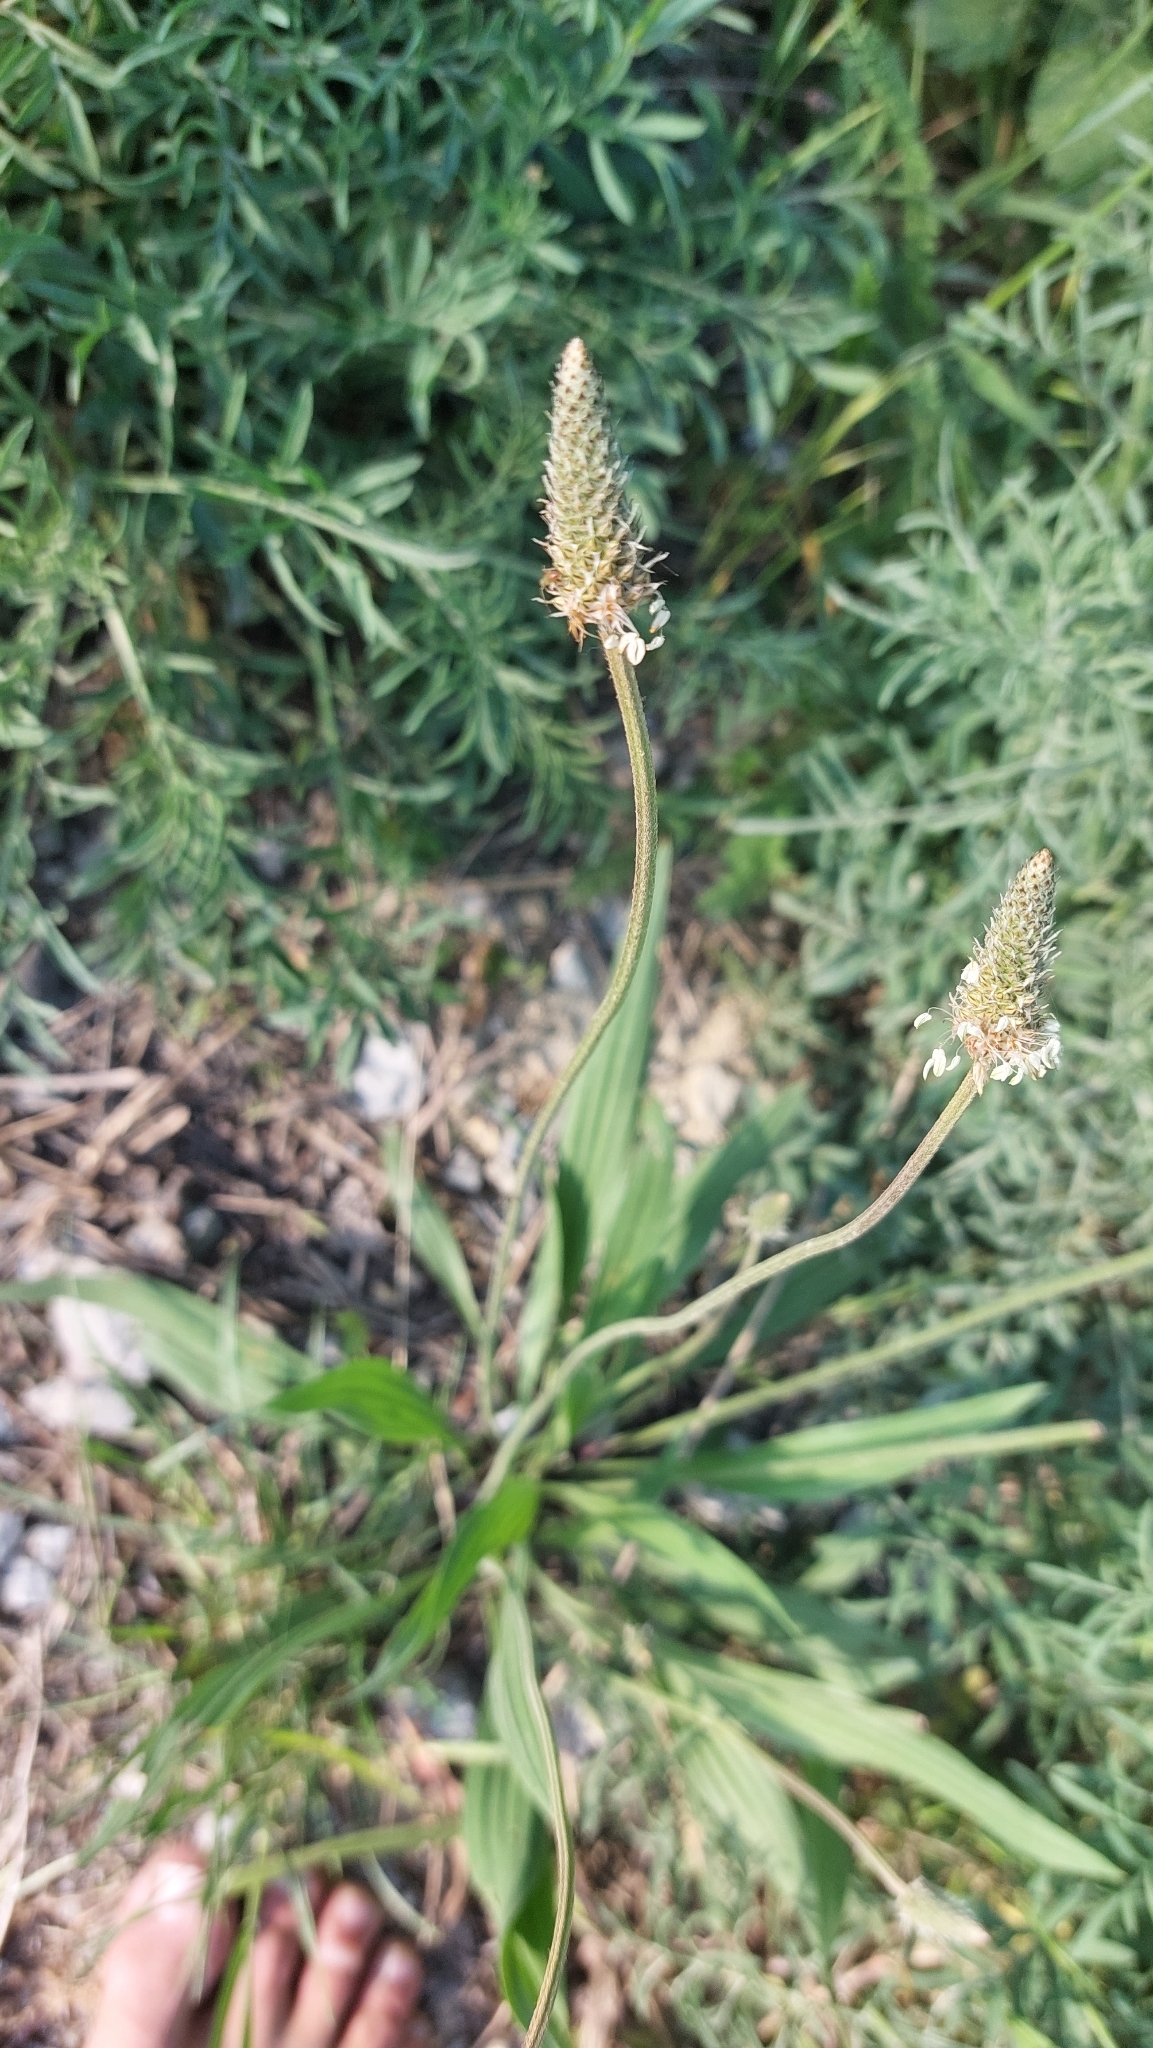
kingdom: Plantae
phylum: Tracheophyta
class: Magnoliopsida
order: Lamiales
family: Plantaginaceae
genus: Plantago
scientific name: Plantago lanceolata
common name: Ribwort plantain
